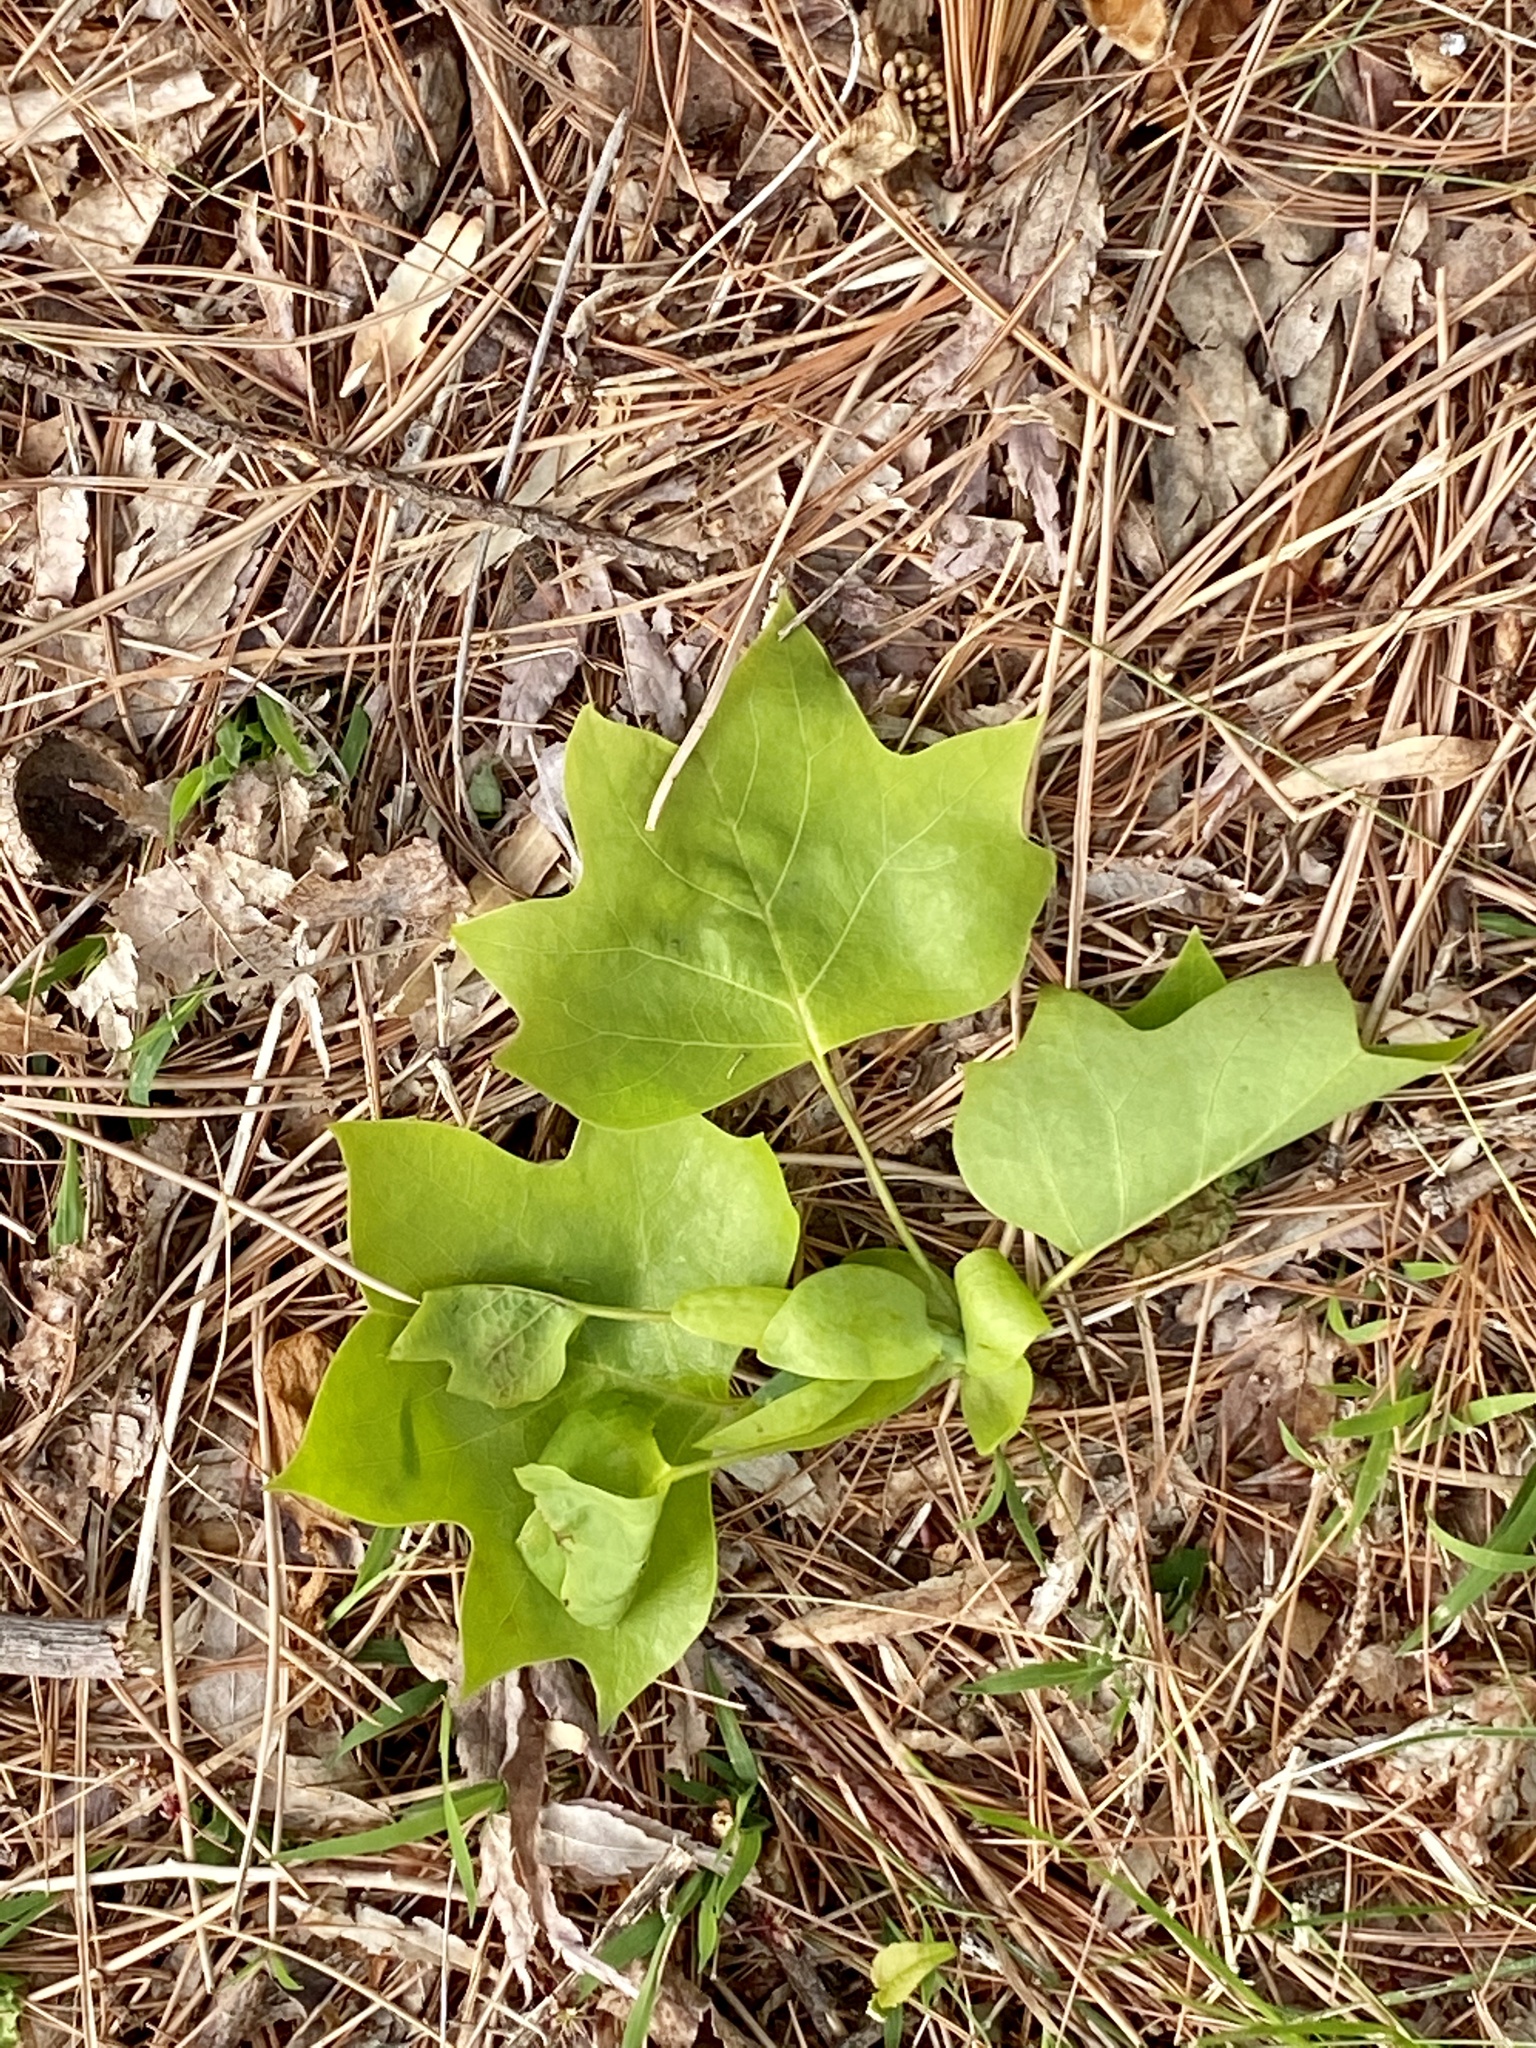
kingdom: Plantae
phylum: Tracheophyta
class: Magnoliopsida
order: Magnoliales
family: Magnoliaceae
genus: Liriodendron
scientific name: Liriodendron tulipifera
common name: Tulip tree
